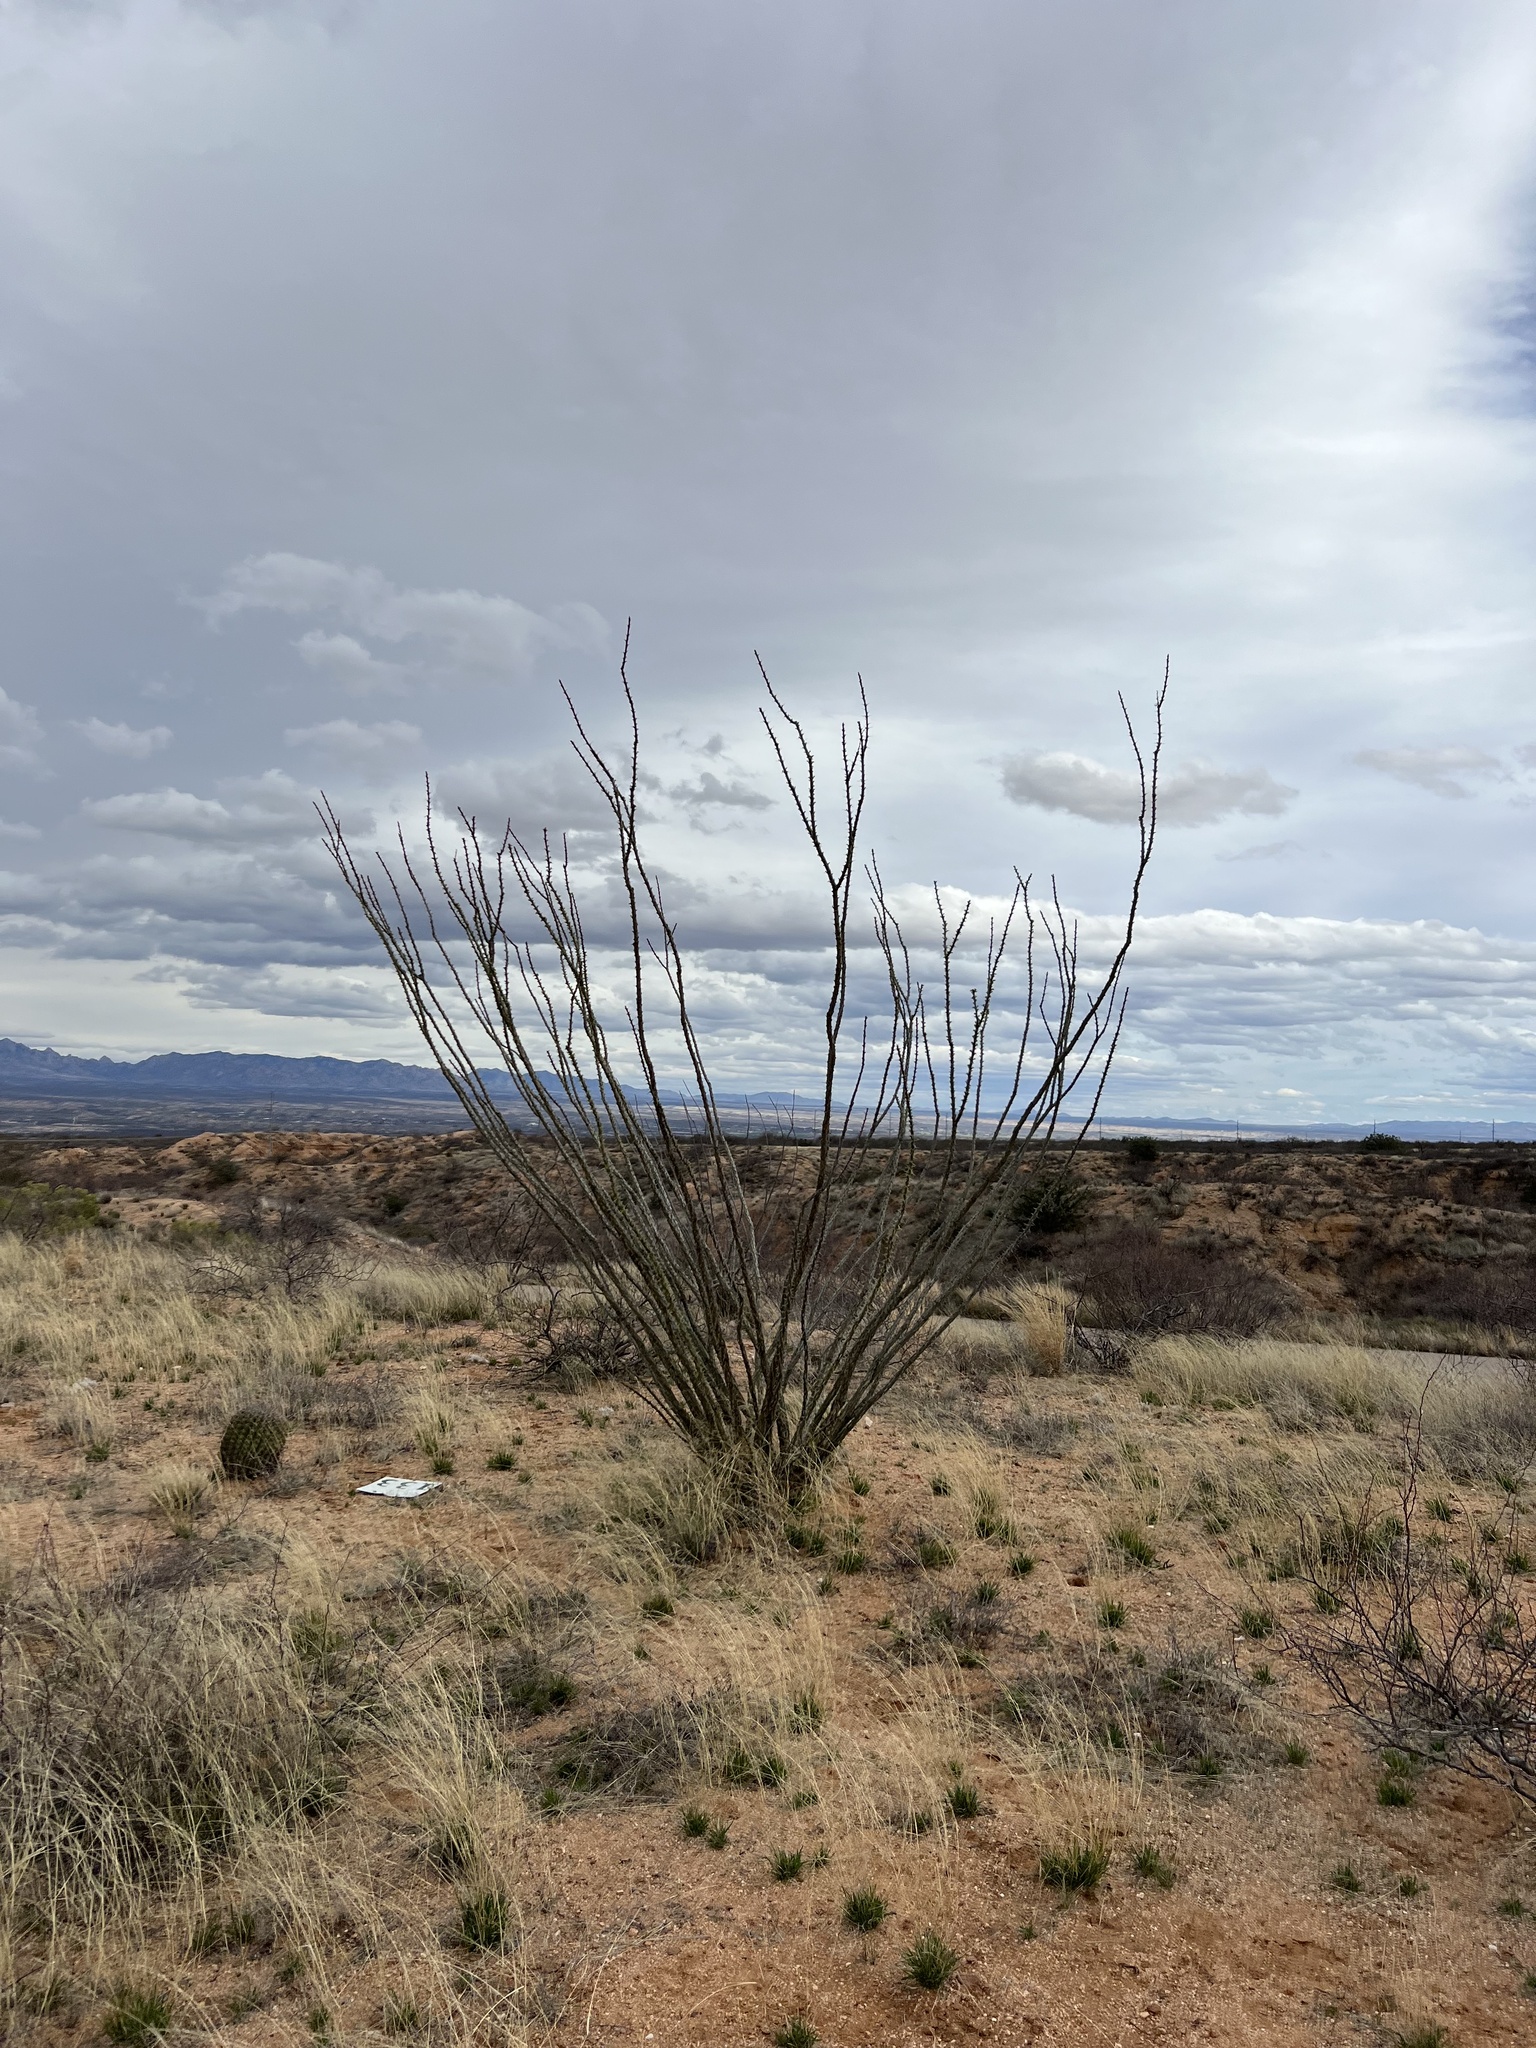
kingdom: Plantae
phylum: Tracheophyta
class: Magnoliopsida
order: Ericales
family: Fouquieriaceae
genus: Fouquieria
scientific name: Fouquieria splendens
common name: Vine-cactus
